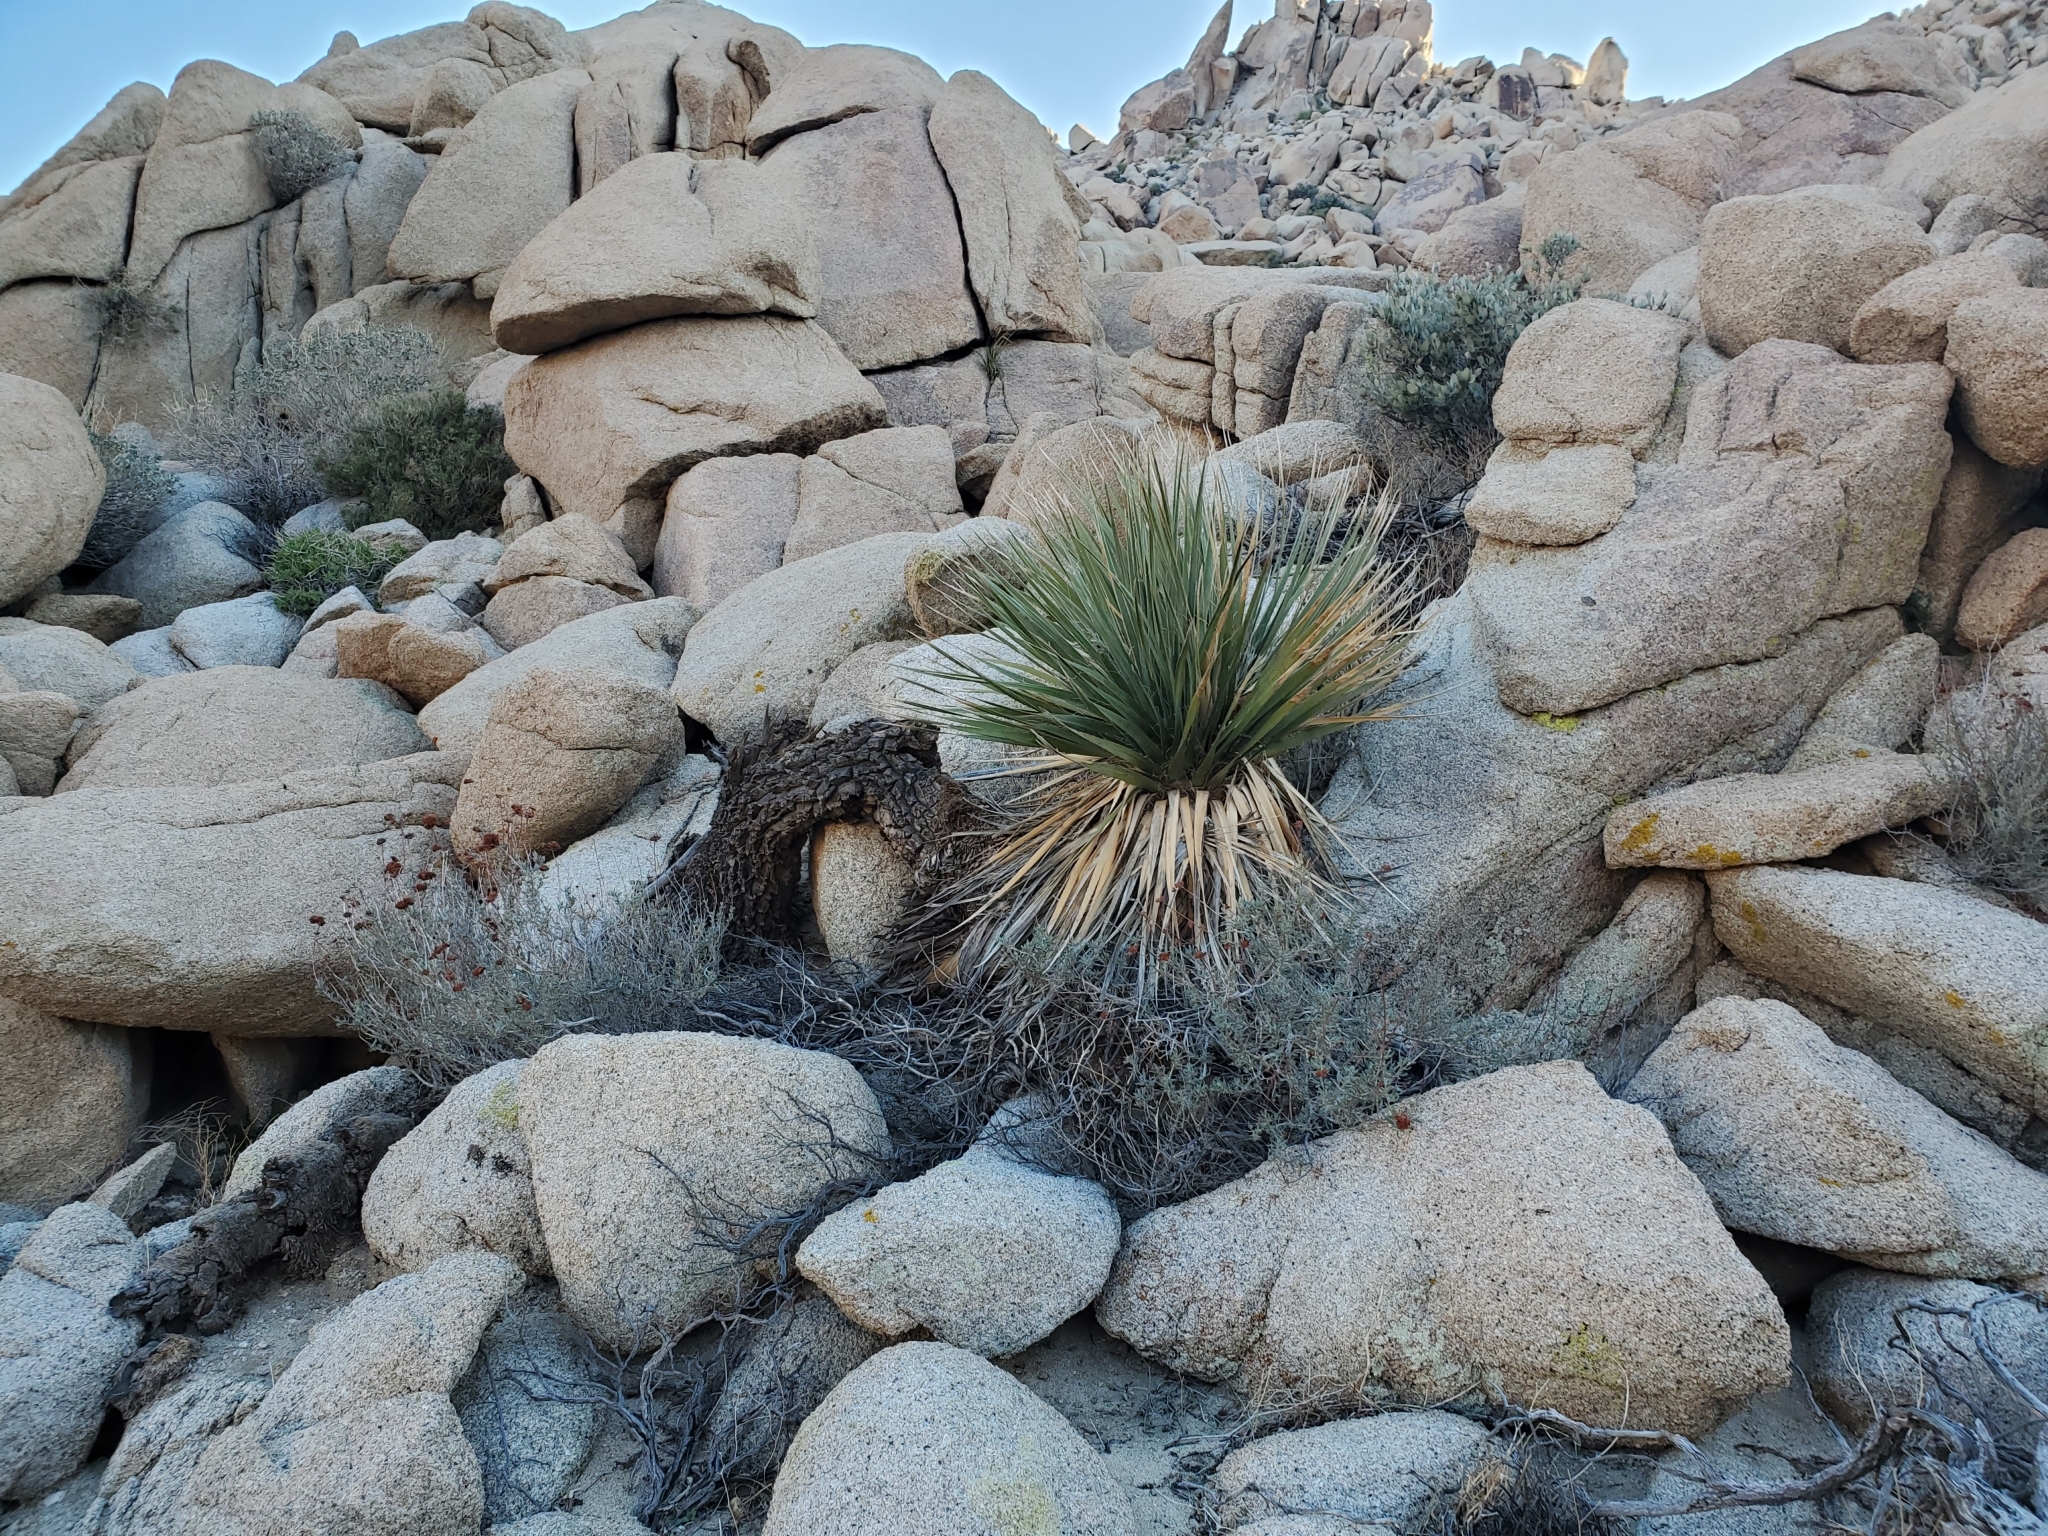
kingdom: Plantae
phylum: Tracheophyta
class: Liliopsida
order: Asparagales
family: Asparagaceae
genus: Nolina
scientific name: Nolina bigelovii
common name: Bigelow bear-grass
